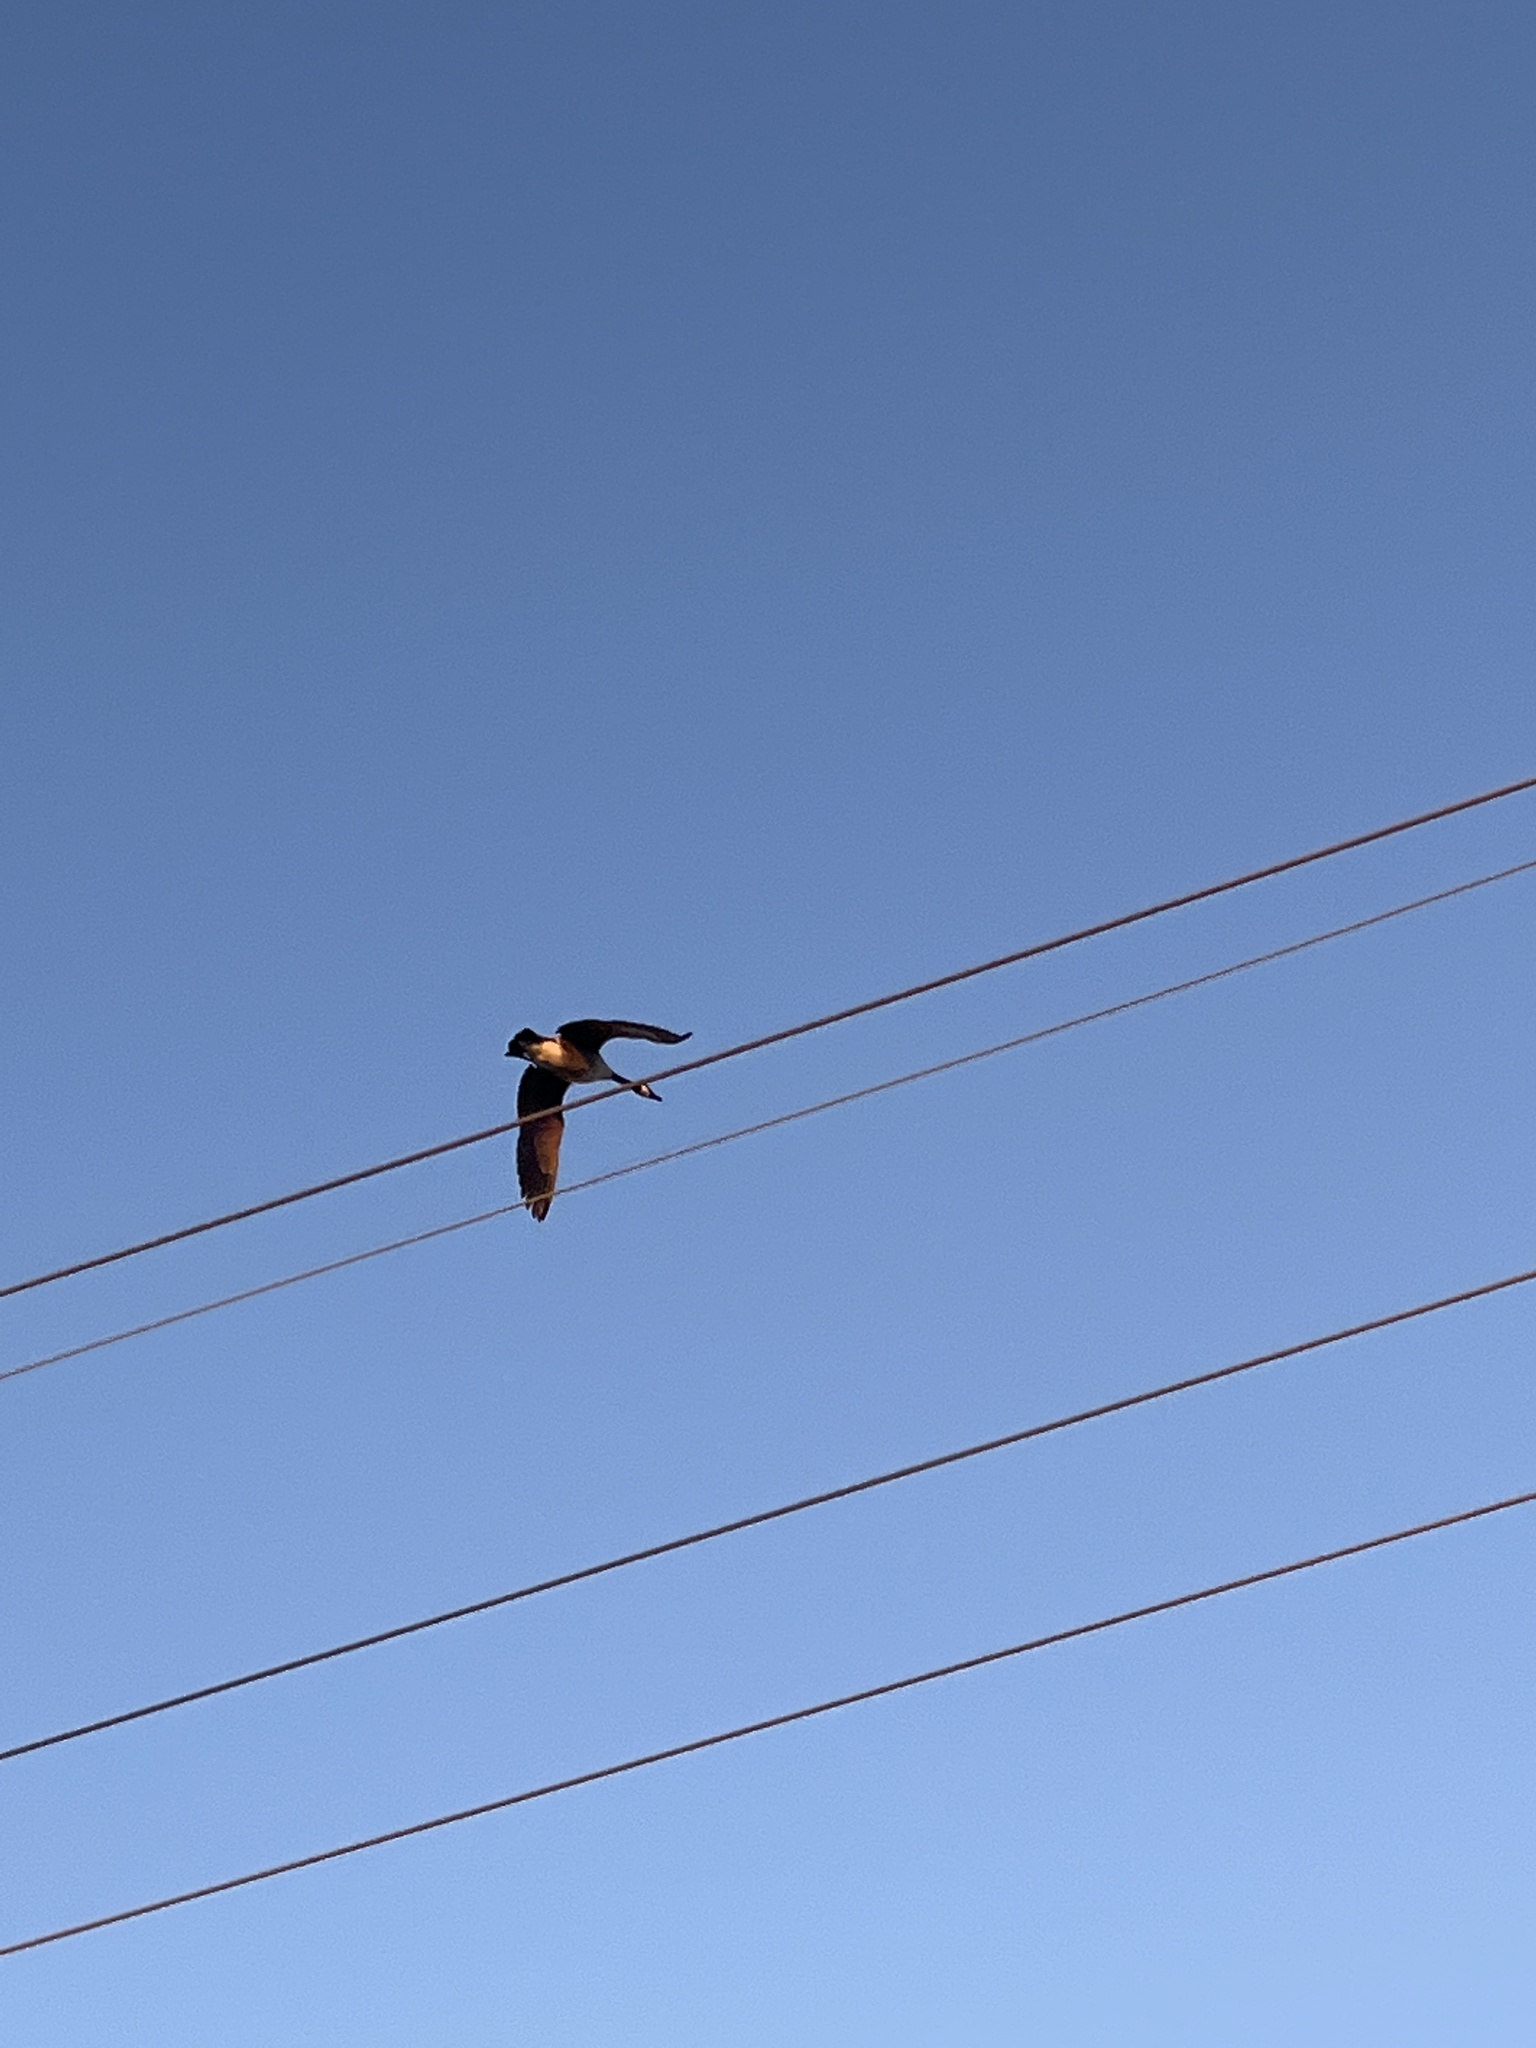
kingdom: Animalia
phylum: Chordata
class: Aves
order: Anseriformes
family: Anatidae
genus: Branta
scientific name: Branta canadensis
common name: Canada goose
